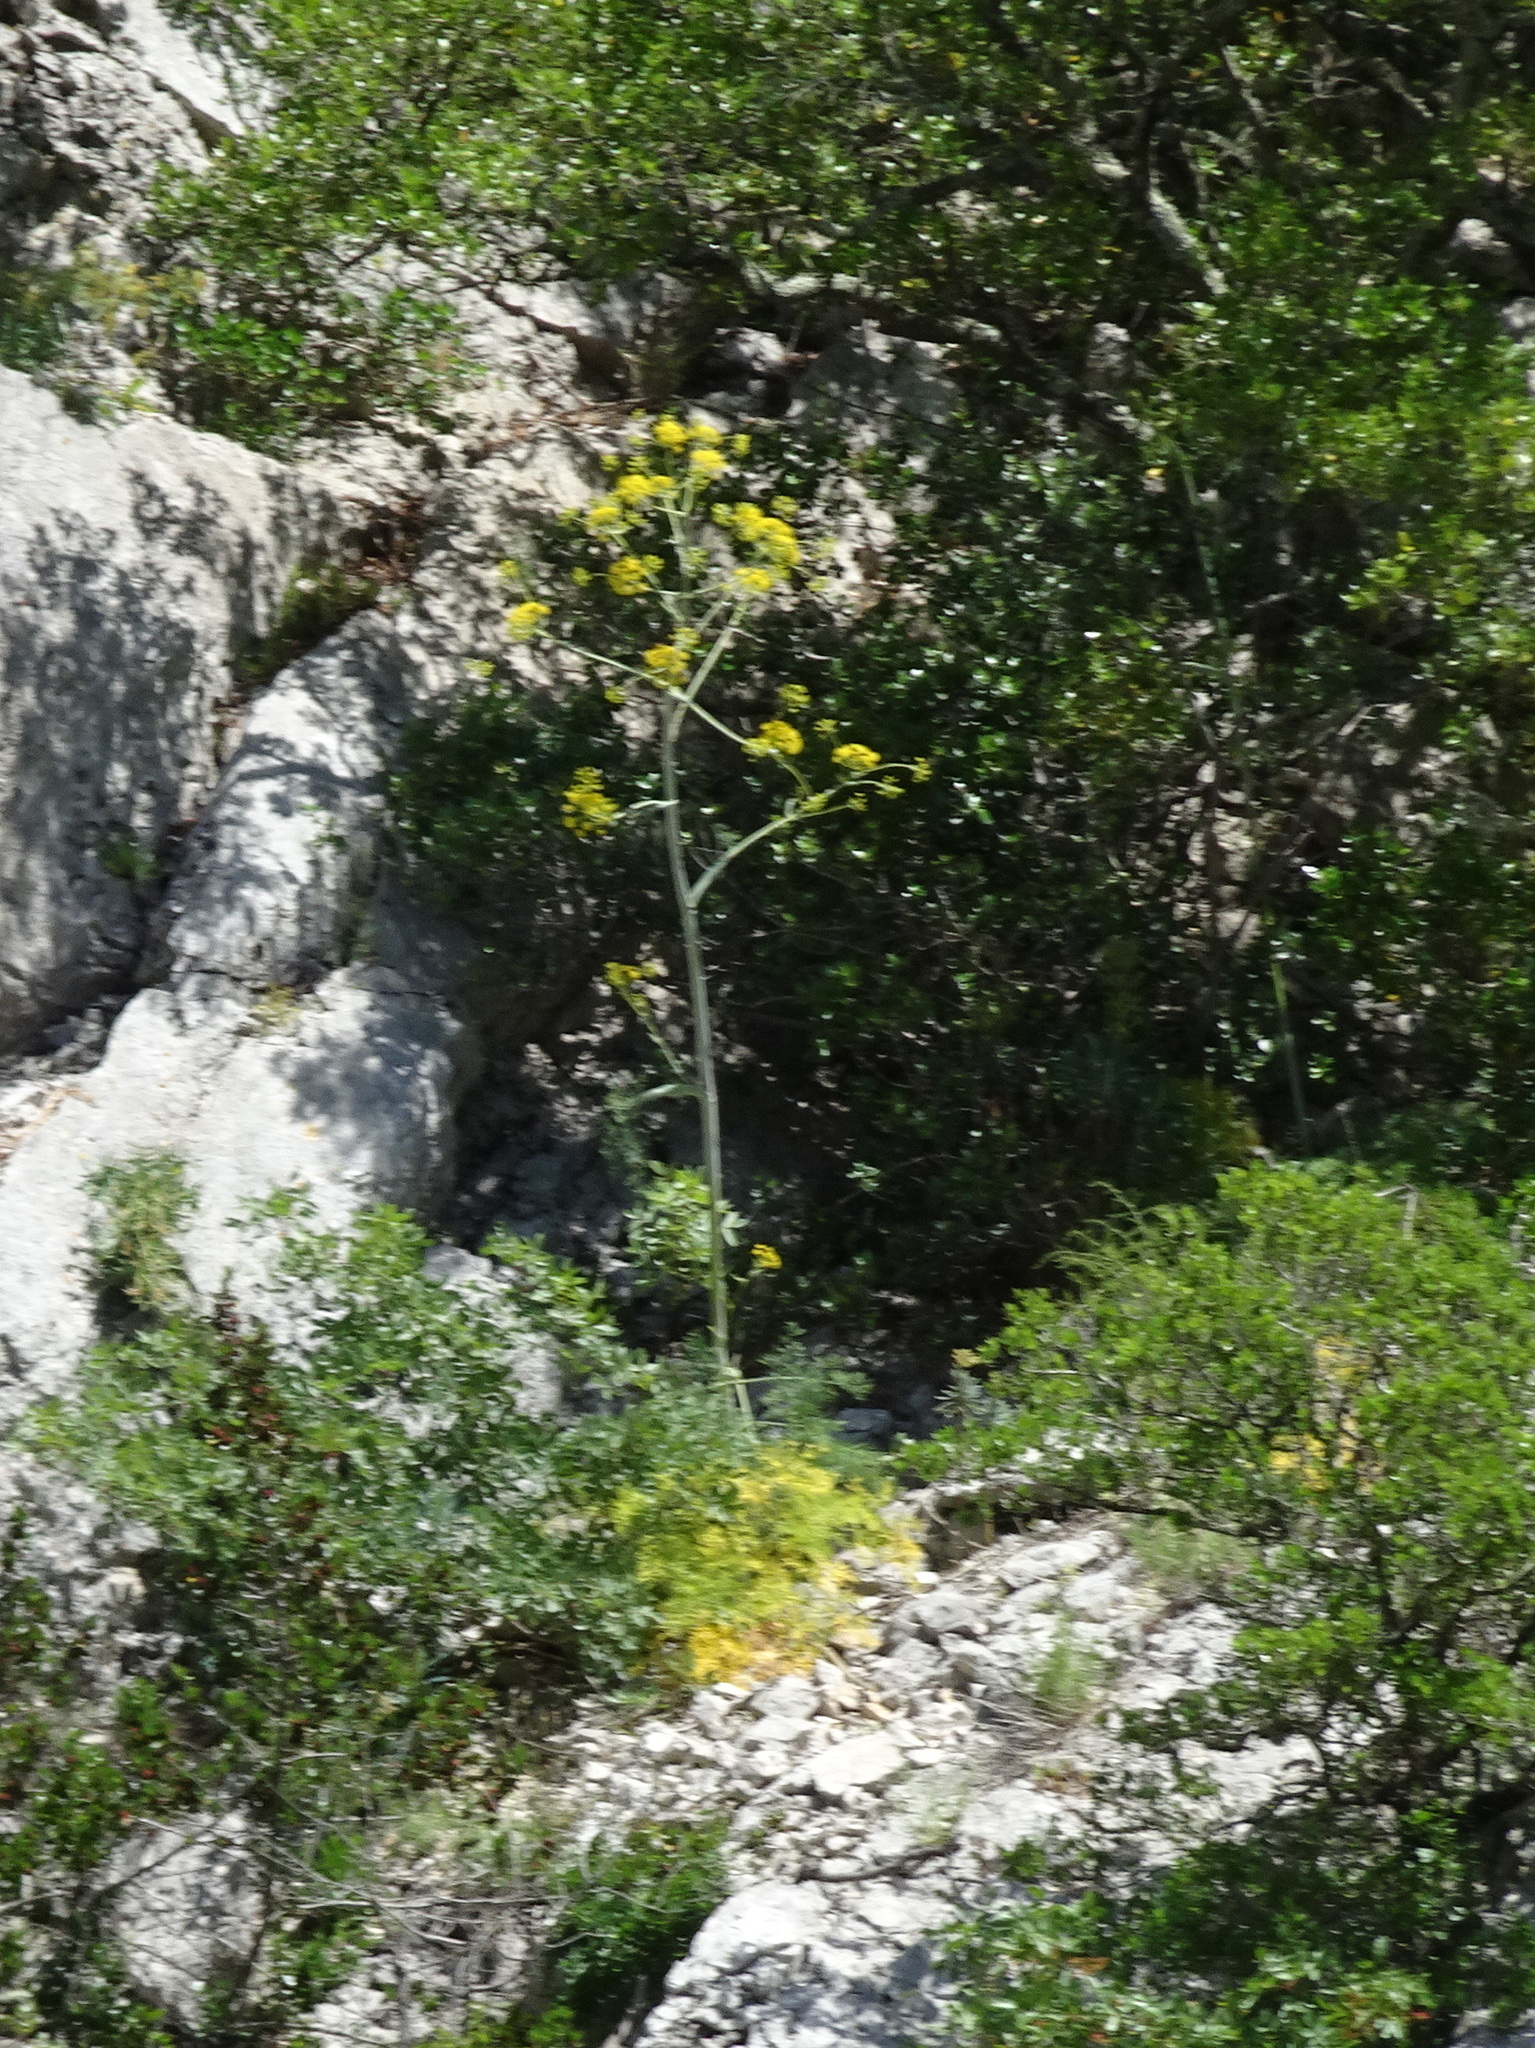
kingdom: Plantae
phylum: Tracheophyta
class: Magnoliopsida
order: Apiales
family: Apiaceae
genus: Ferula
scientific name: Ferula glauca
